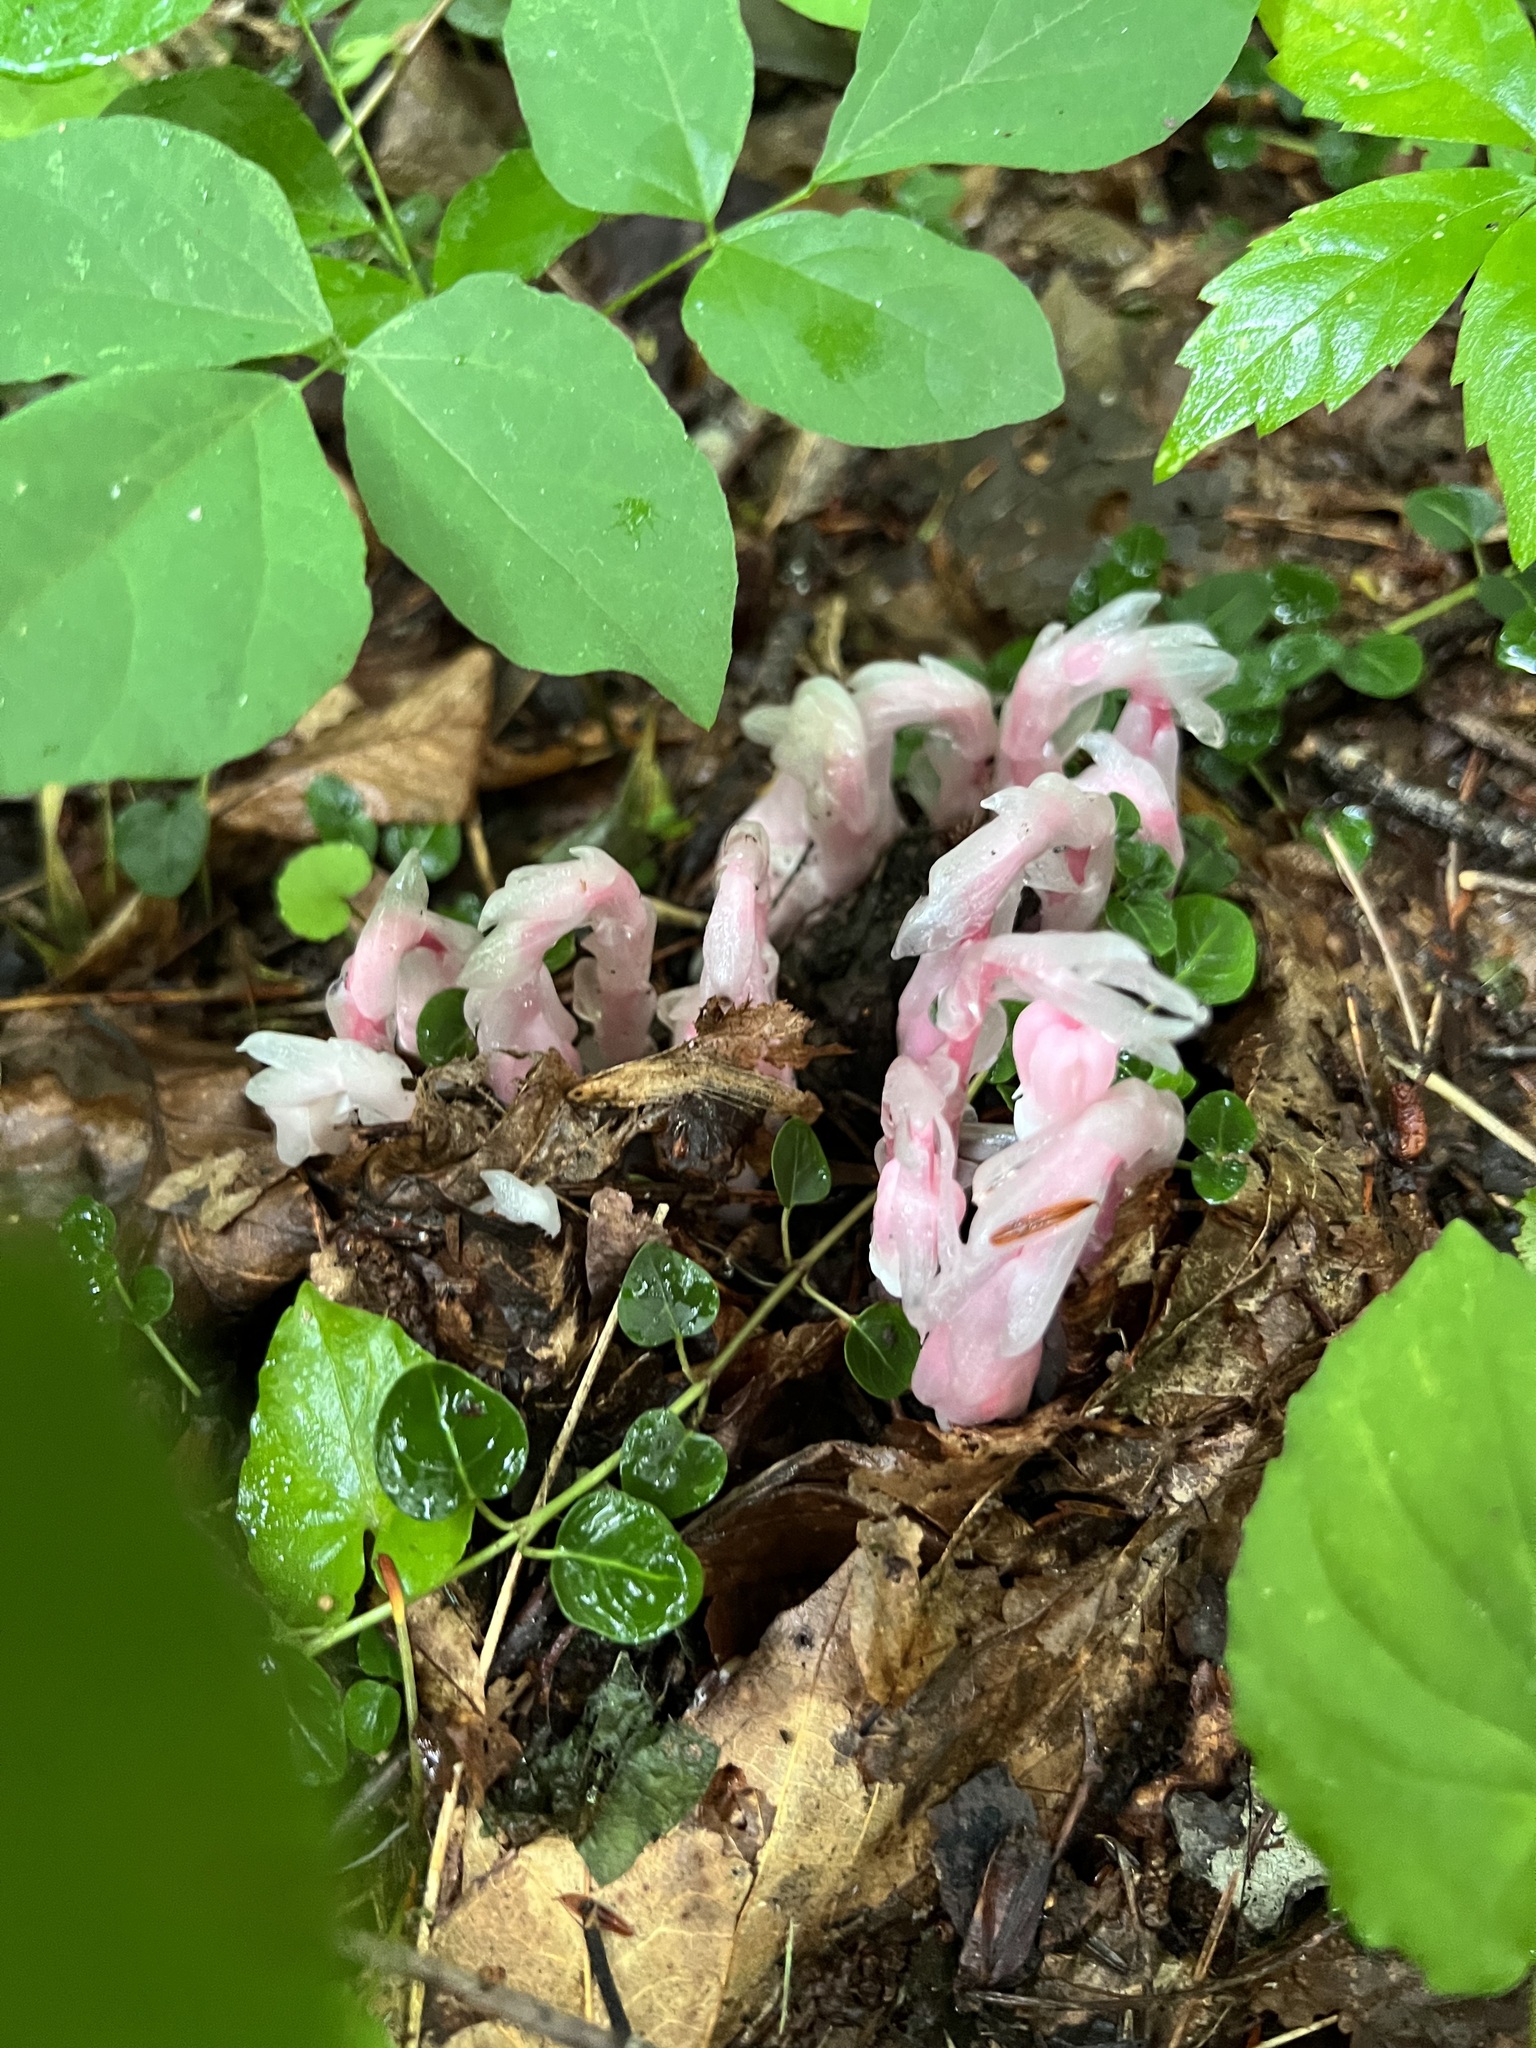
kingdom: Plantae
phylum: Tracheophyta
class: Magnoliopsida
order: Ericales
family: Ericaceae
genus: Monotropa
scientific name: Monotropa uniflora
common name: Convulsion root
